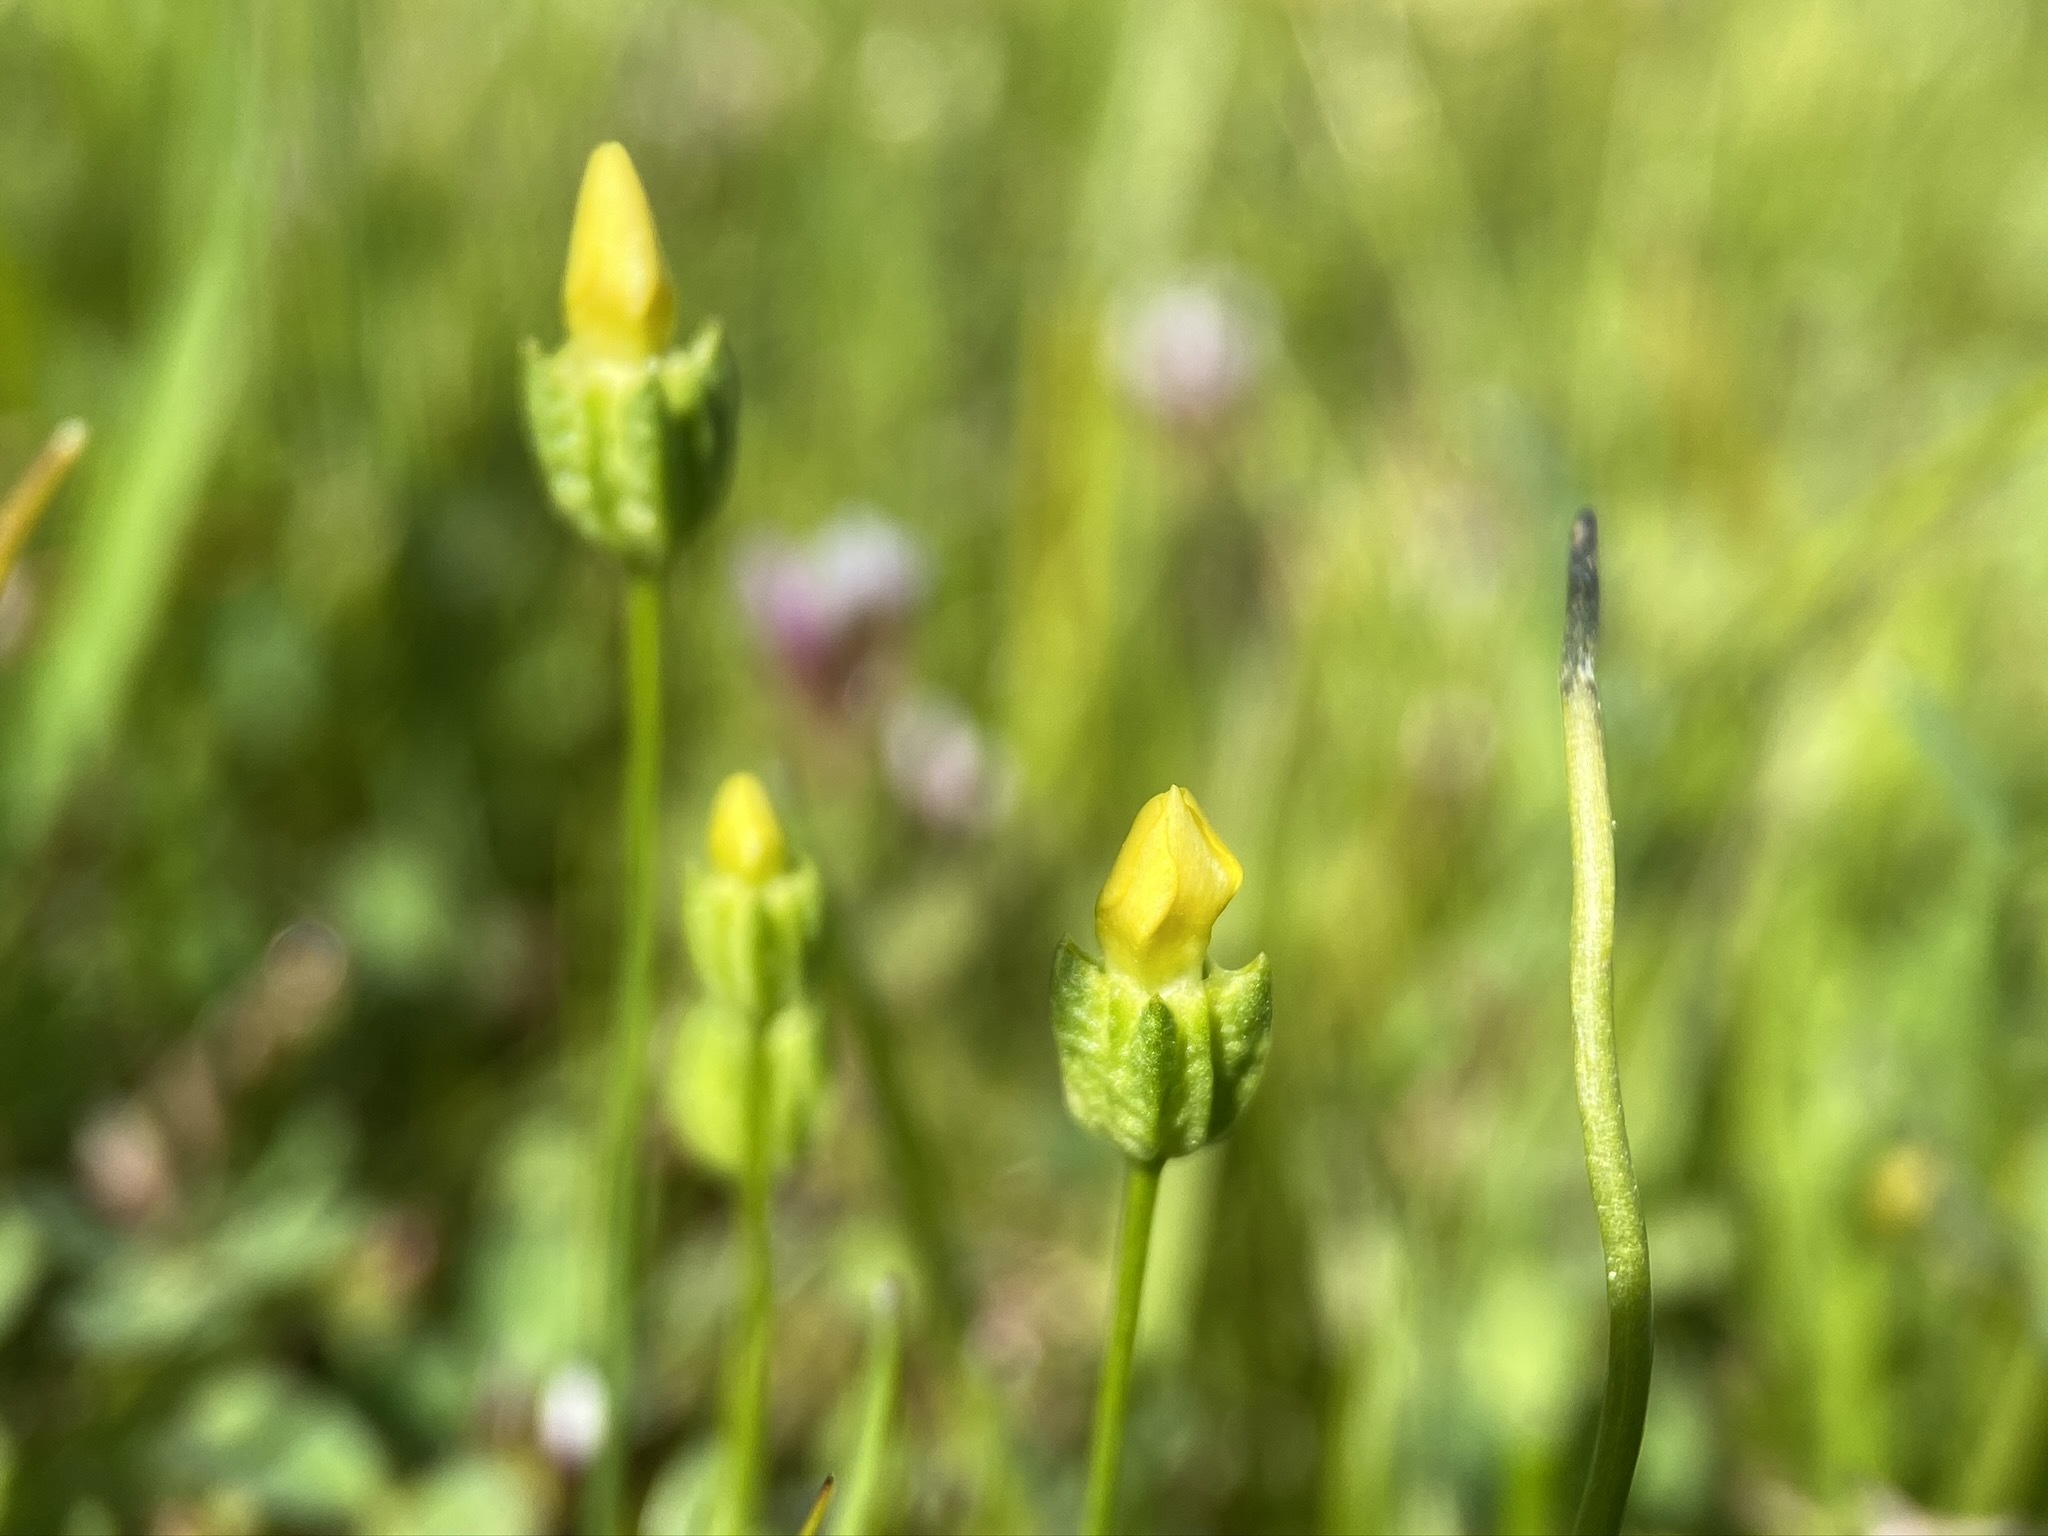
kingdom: Plantae
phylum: Tracheophyta
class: Magnoliopsida
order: Gentianales
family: Gentianaceae
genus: Microcala
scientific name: Microcala quadrangularis
